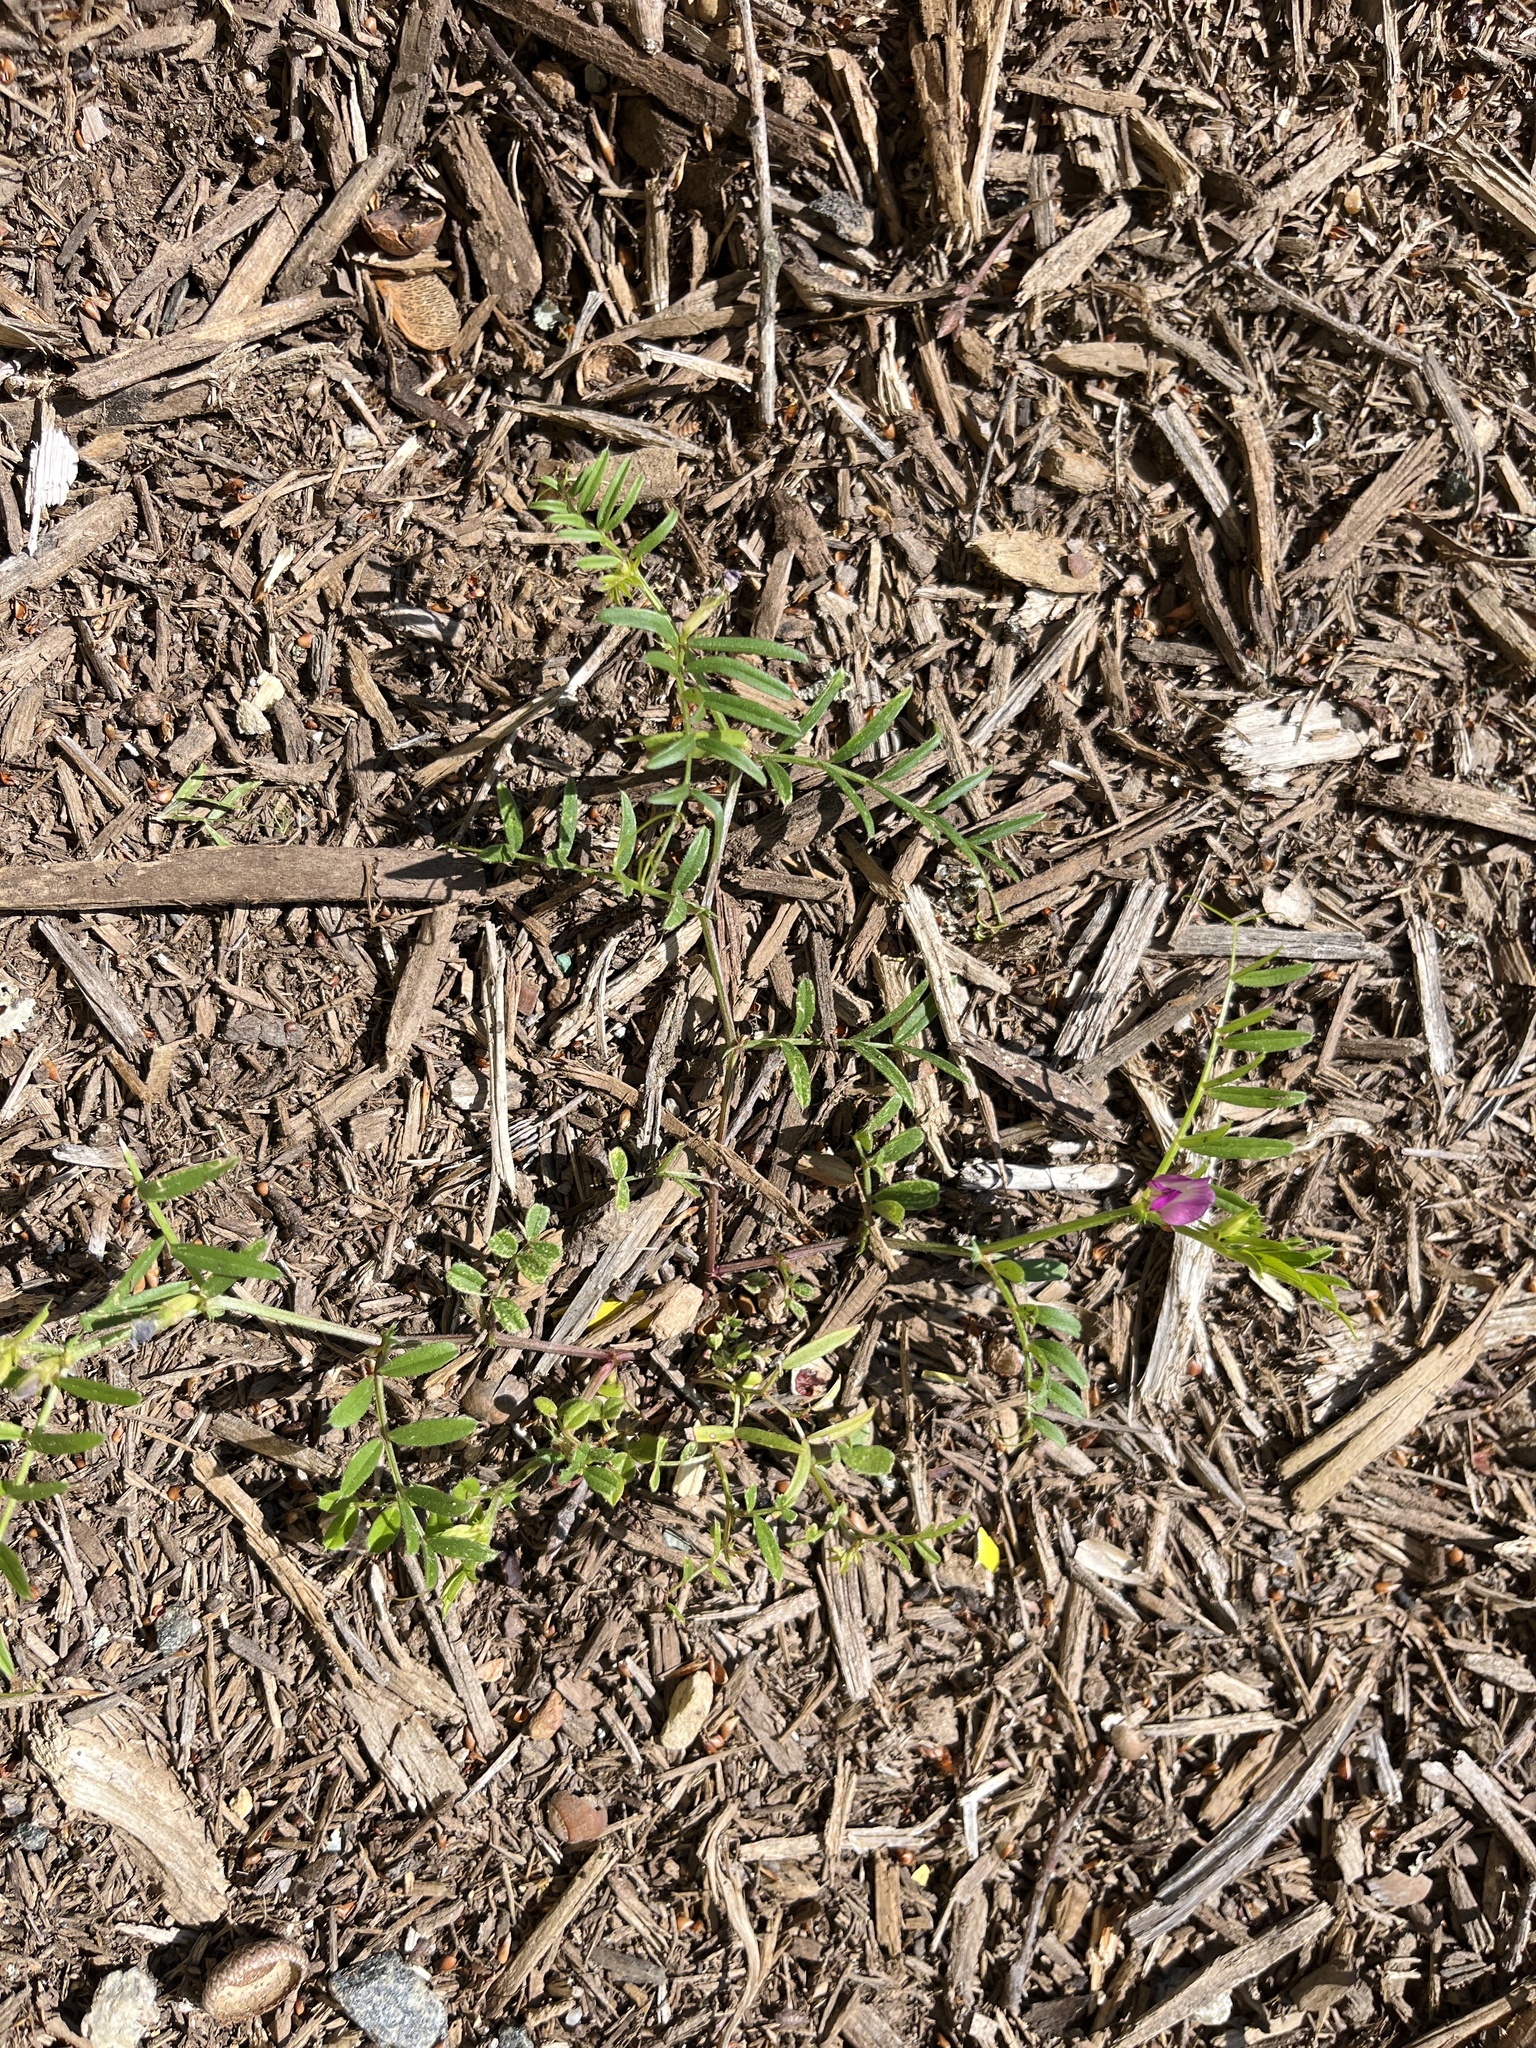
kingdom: Plantae
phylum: Tracheophyta
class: Magnoliopsida
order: Fabales
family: Fabaceae
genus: Vicia
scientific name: Vicia sativa
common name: Garden vetch
